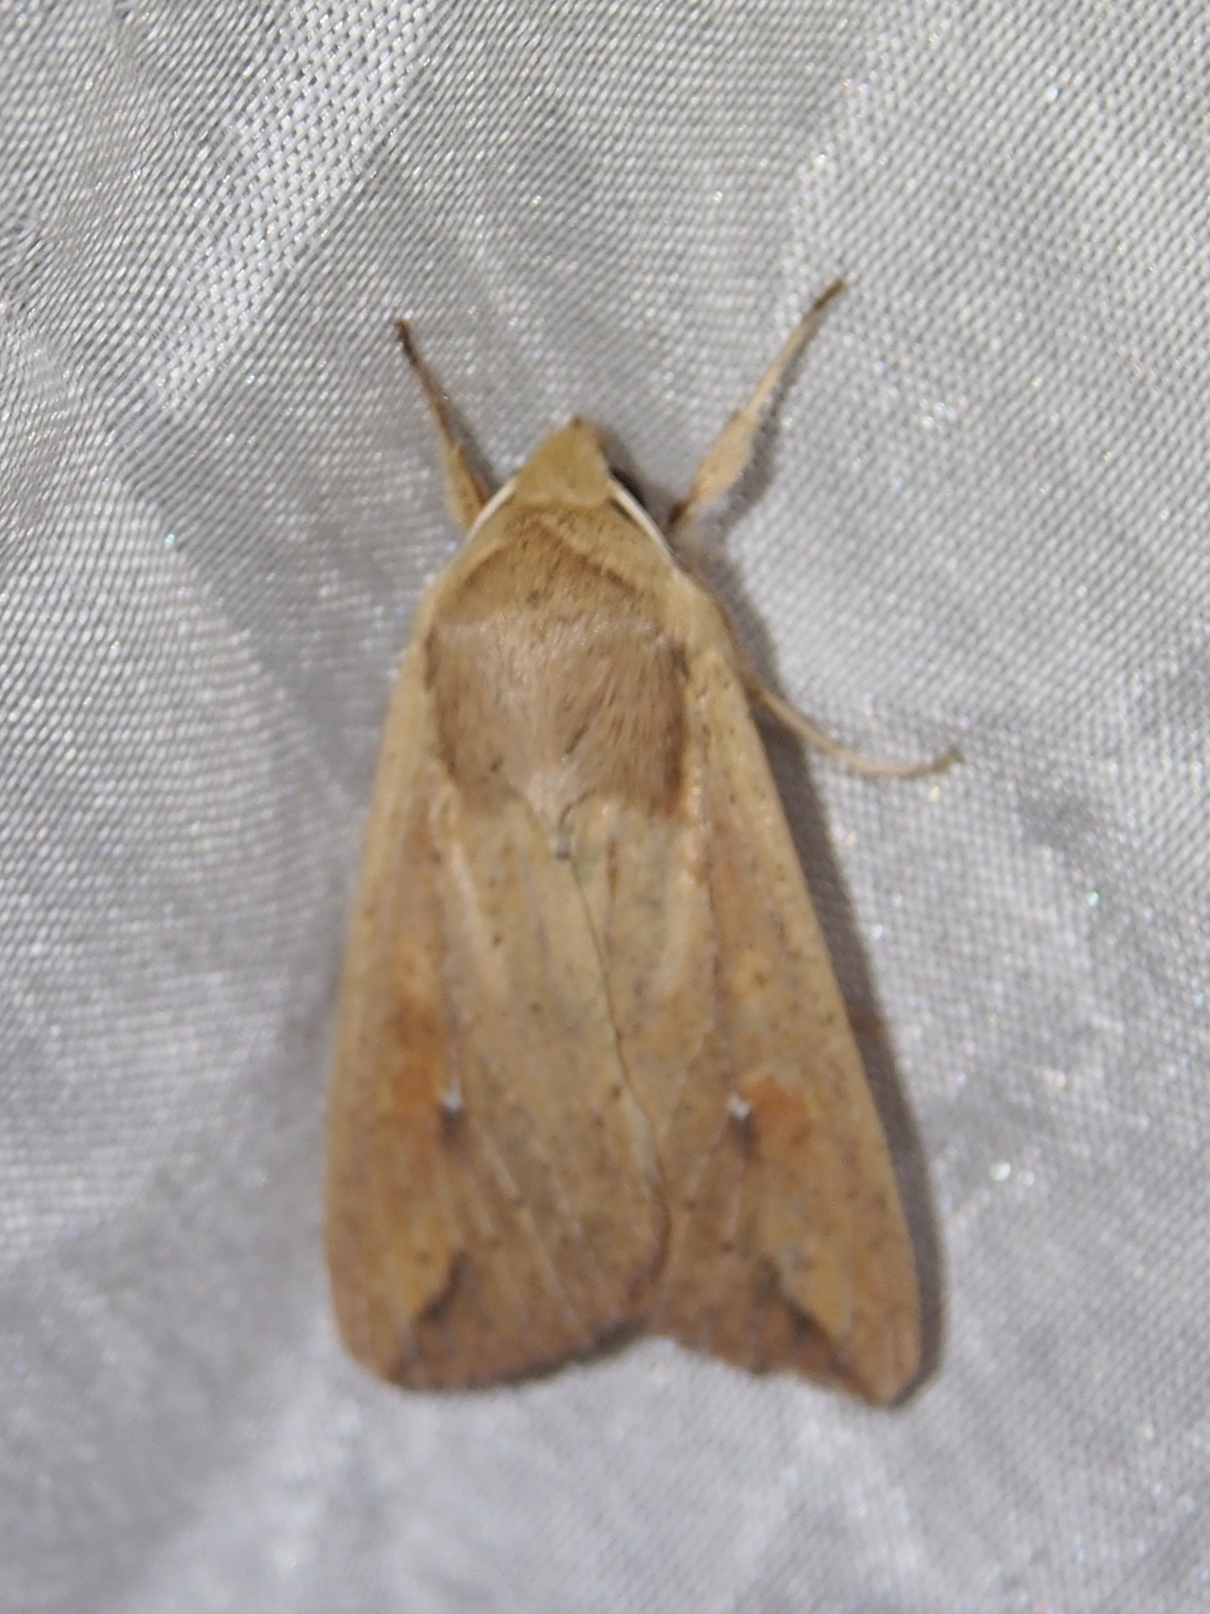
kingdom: Animalia
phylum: Arthropoda
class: Insecta
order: Lepidoptera
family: Noctuidae
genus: Mythimna
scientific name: Mythimna sequax
